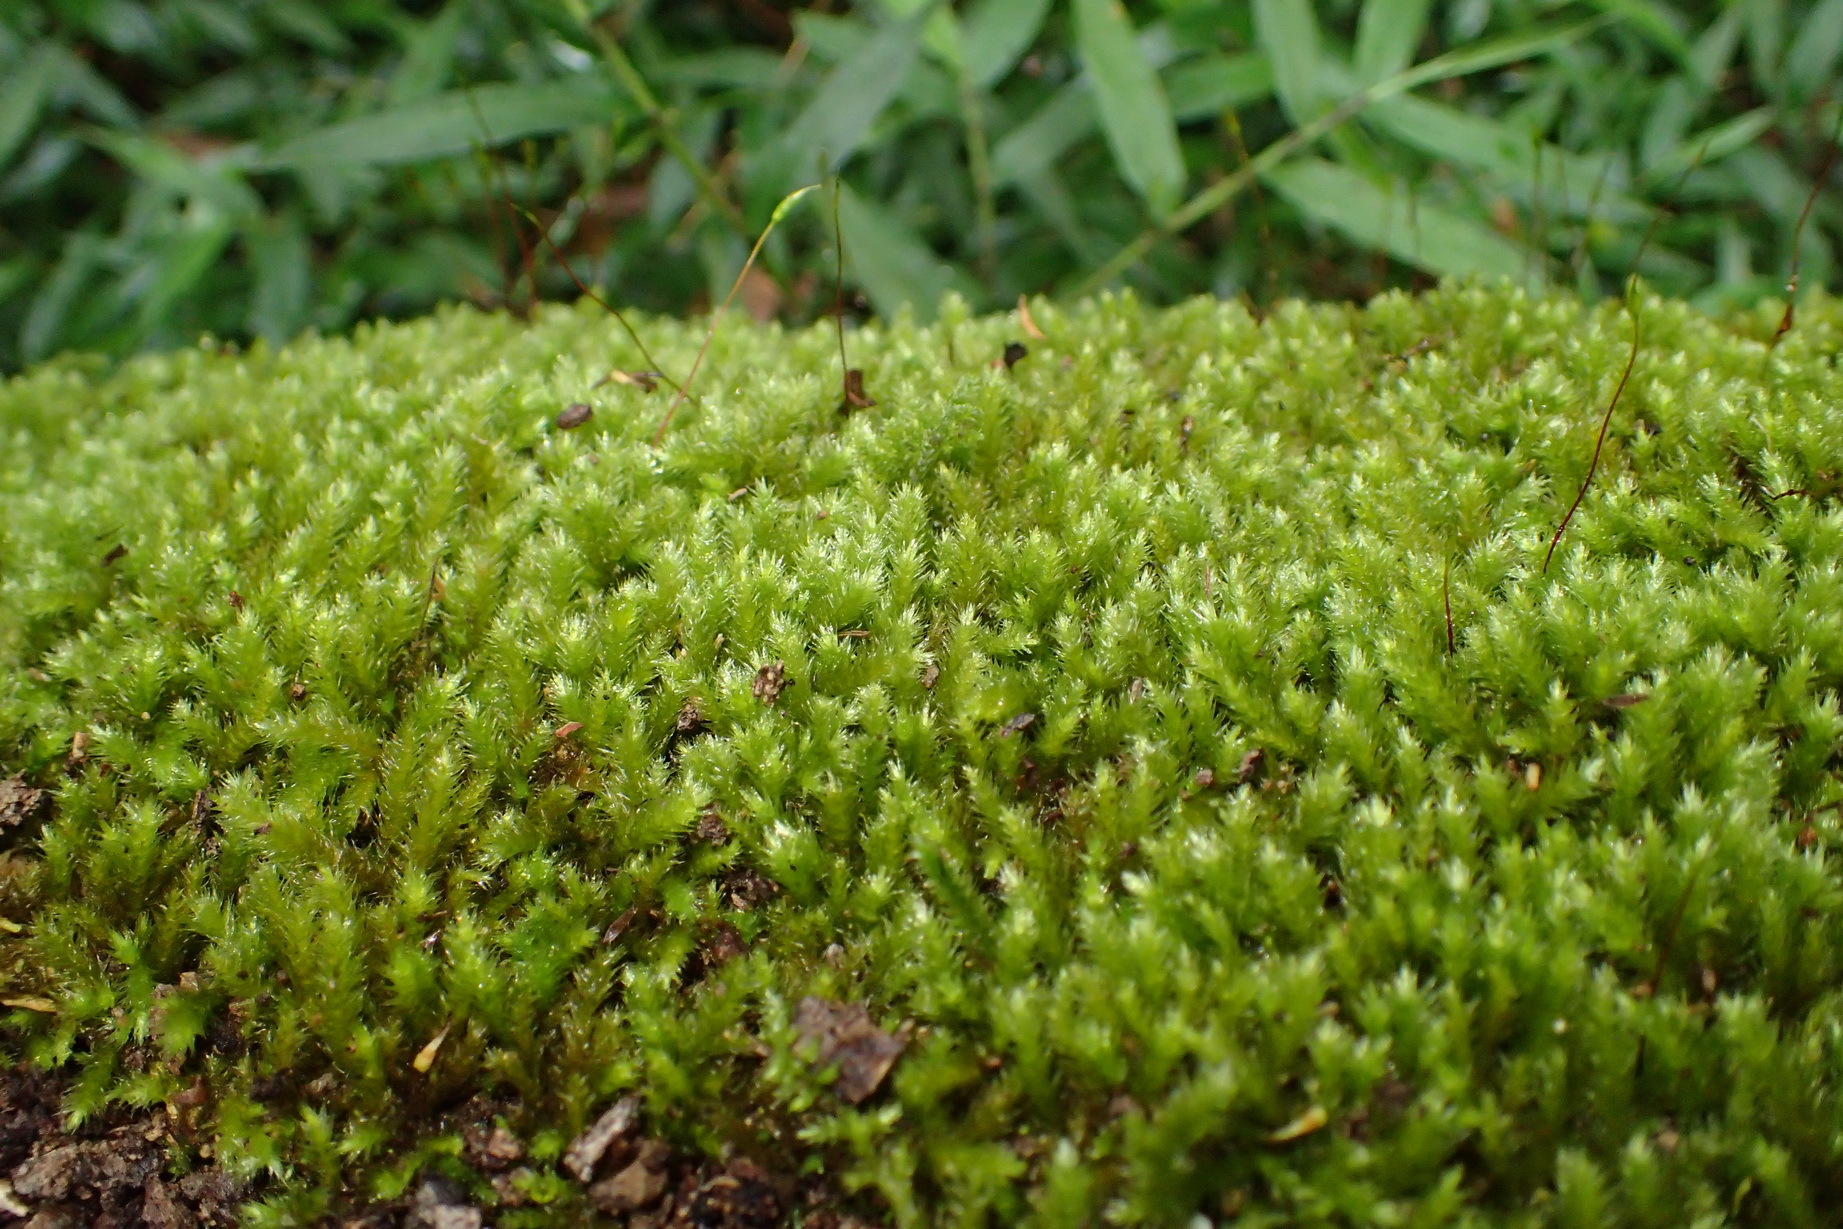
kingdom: Plantae
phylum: Bryophyta
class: Bryopsida
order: Hypnales
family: Brachytheciaceae
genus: Palamocladium
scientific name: Palamocladium leskeoides
